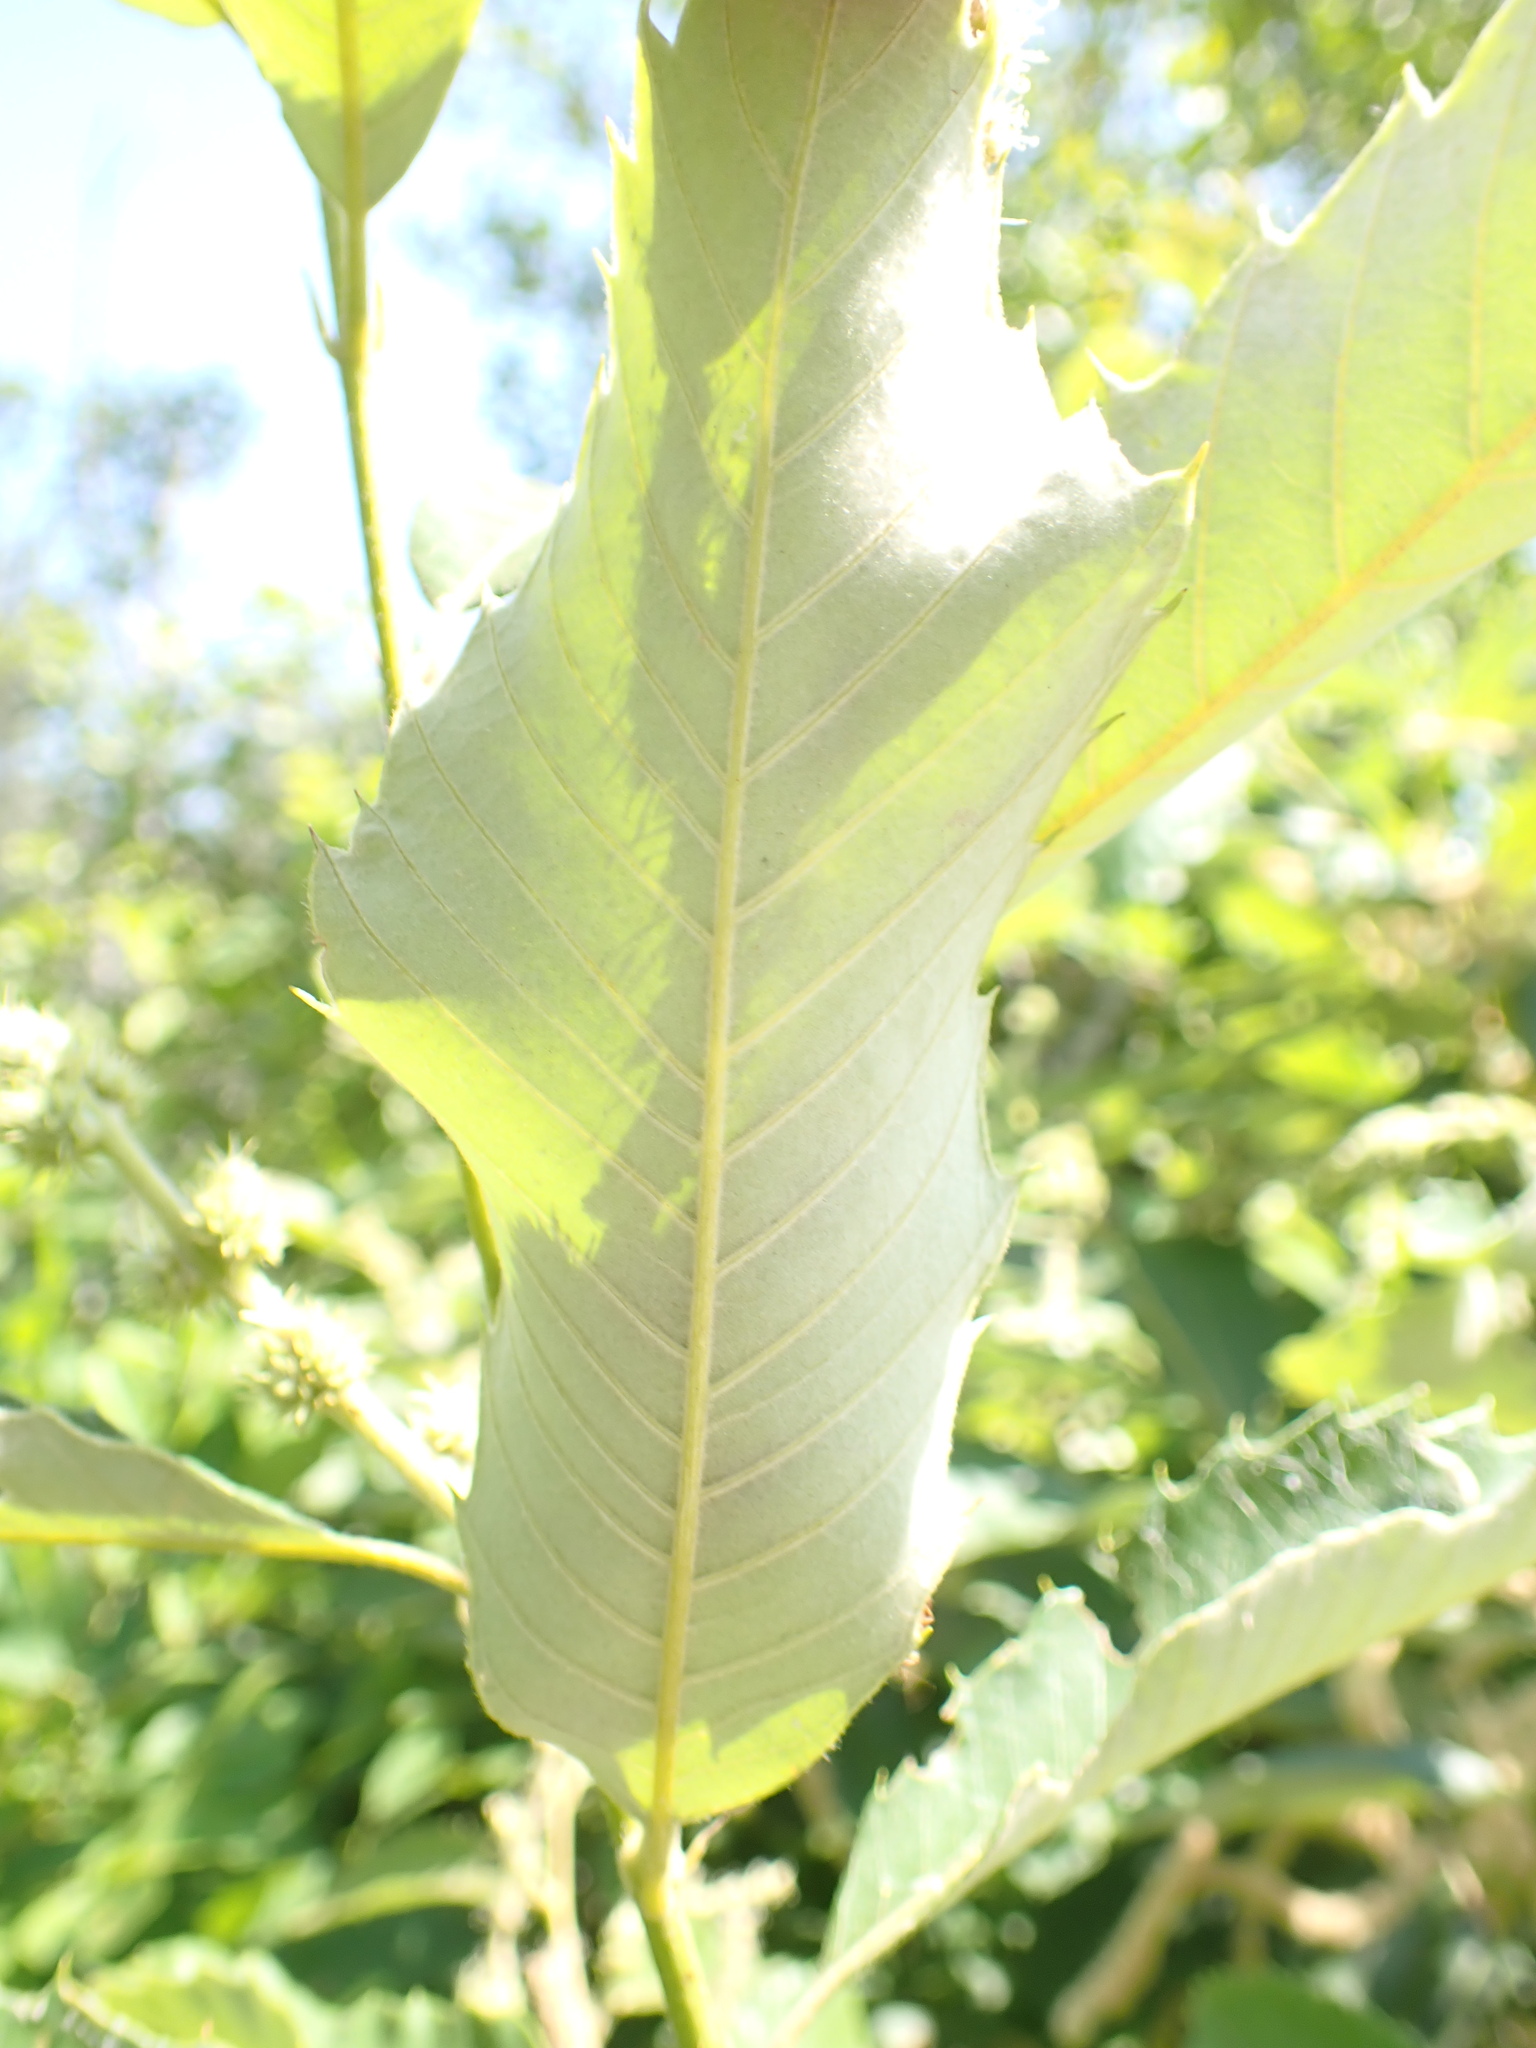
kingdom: Plantae
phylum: Tracheophyta
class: Magnoliopsida
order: Fagales
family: Fagaceae
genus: Castanea
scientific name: Castanea pumila
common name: Chinkapin
